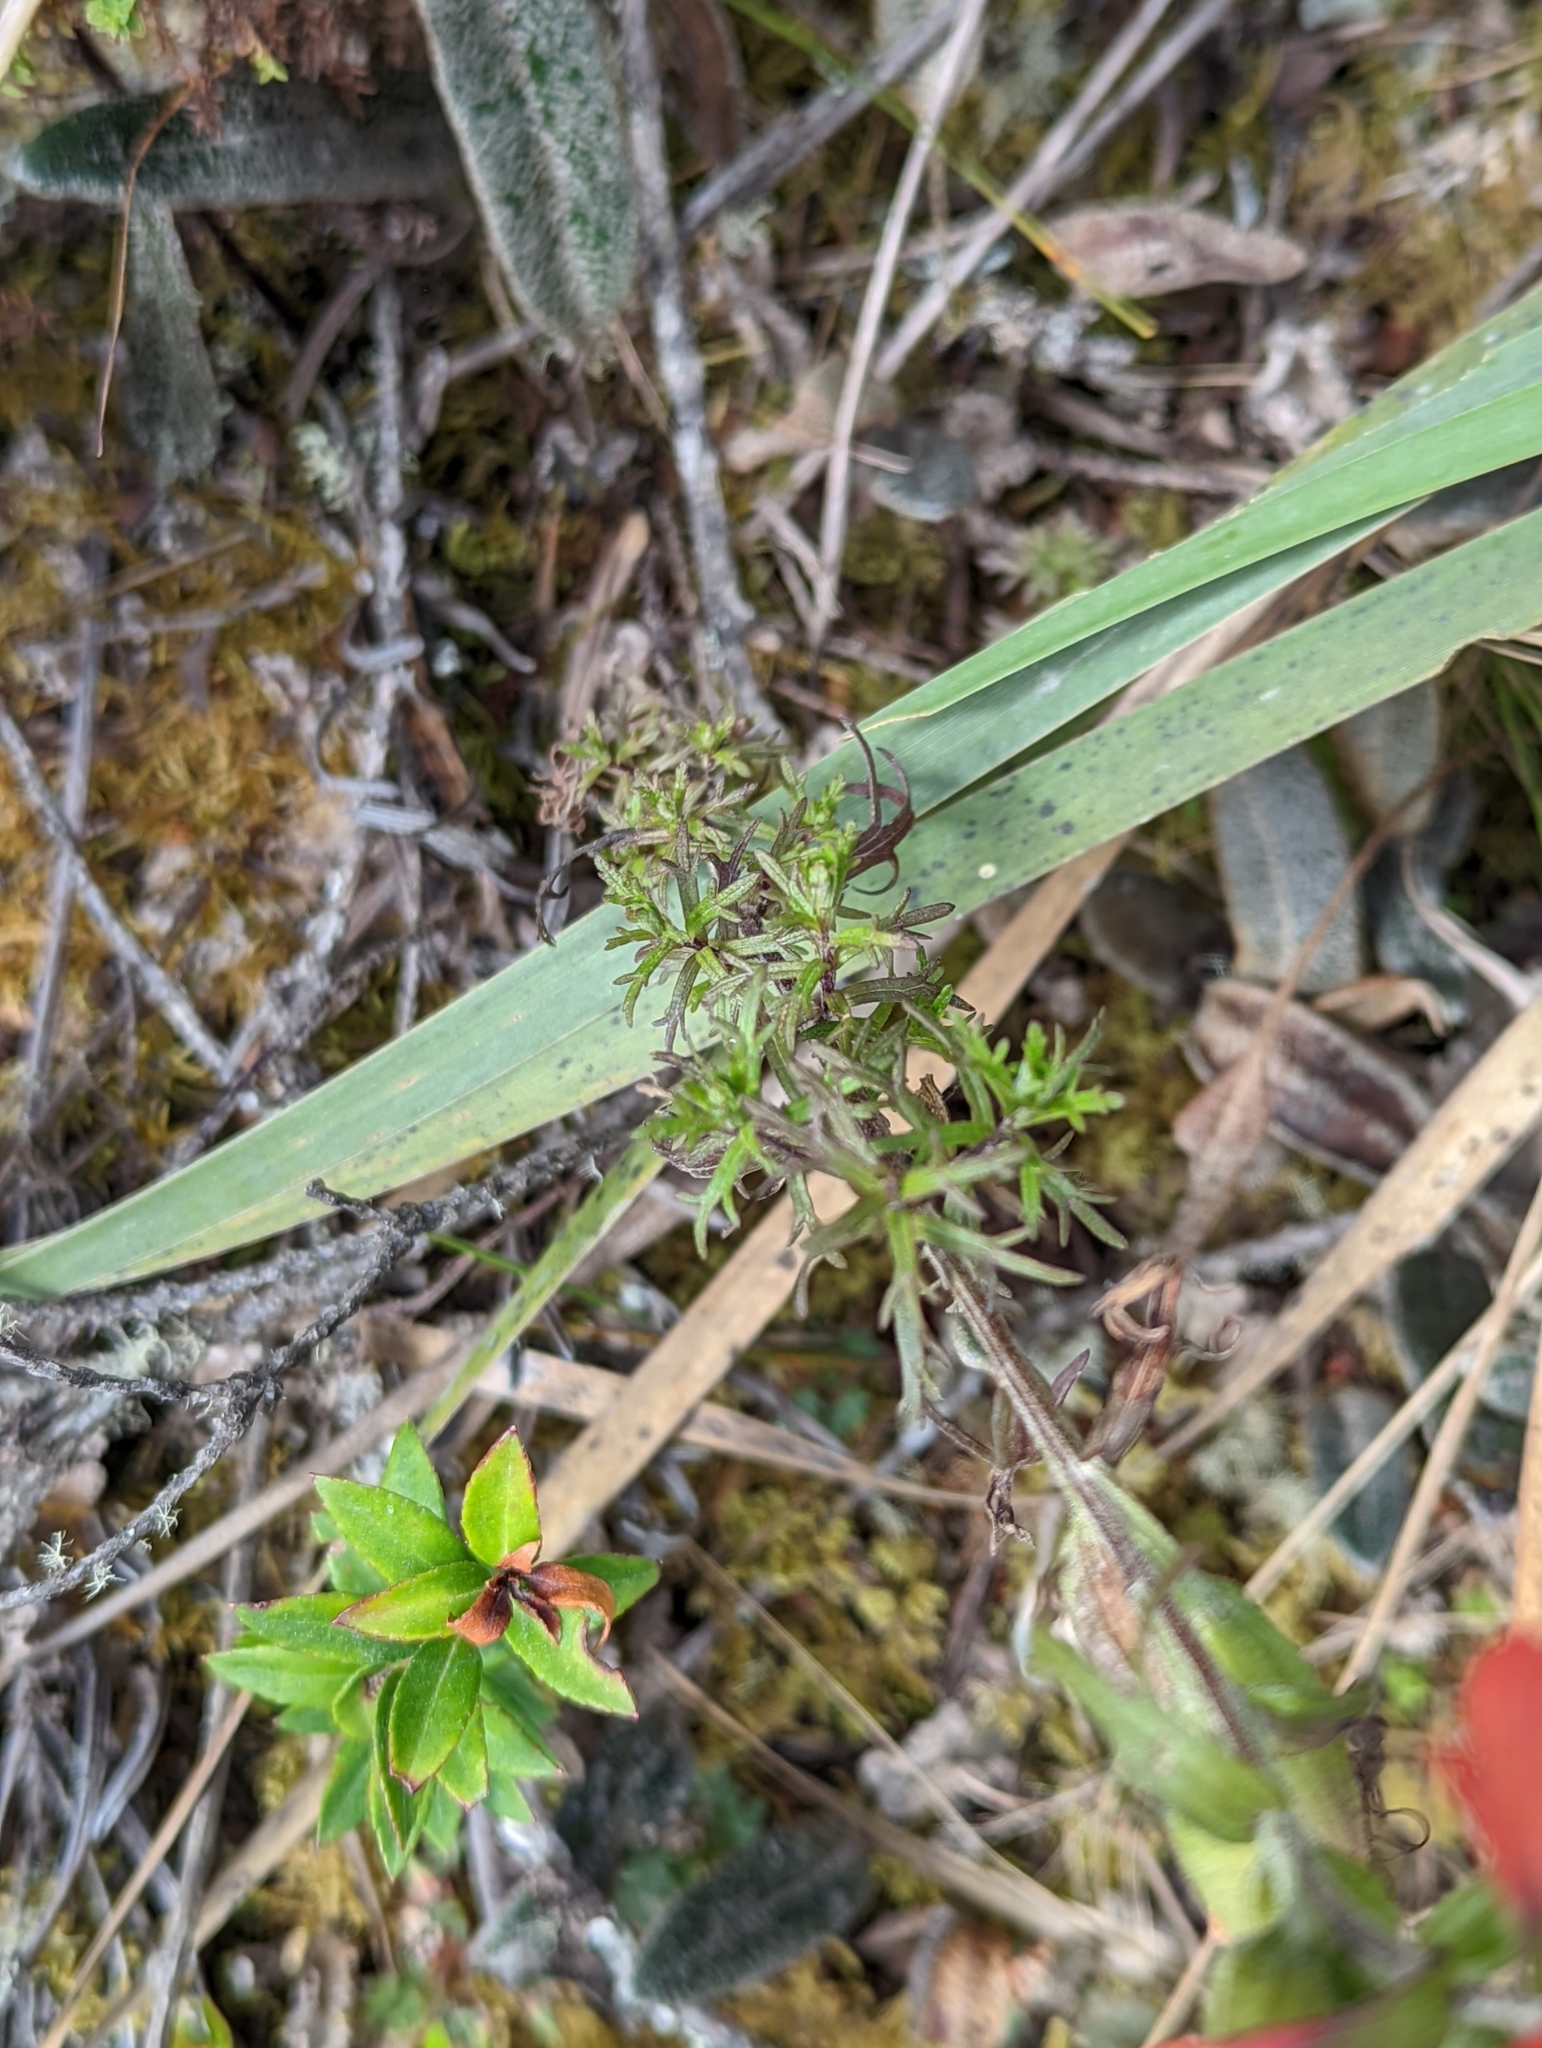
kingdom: Plantae
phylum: Tracheophyta
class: Magnoliopsida
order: Lamiales
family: Orobanchaceae
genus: Castilleja
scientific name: Castilleja fissifolia
